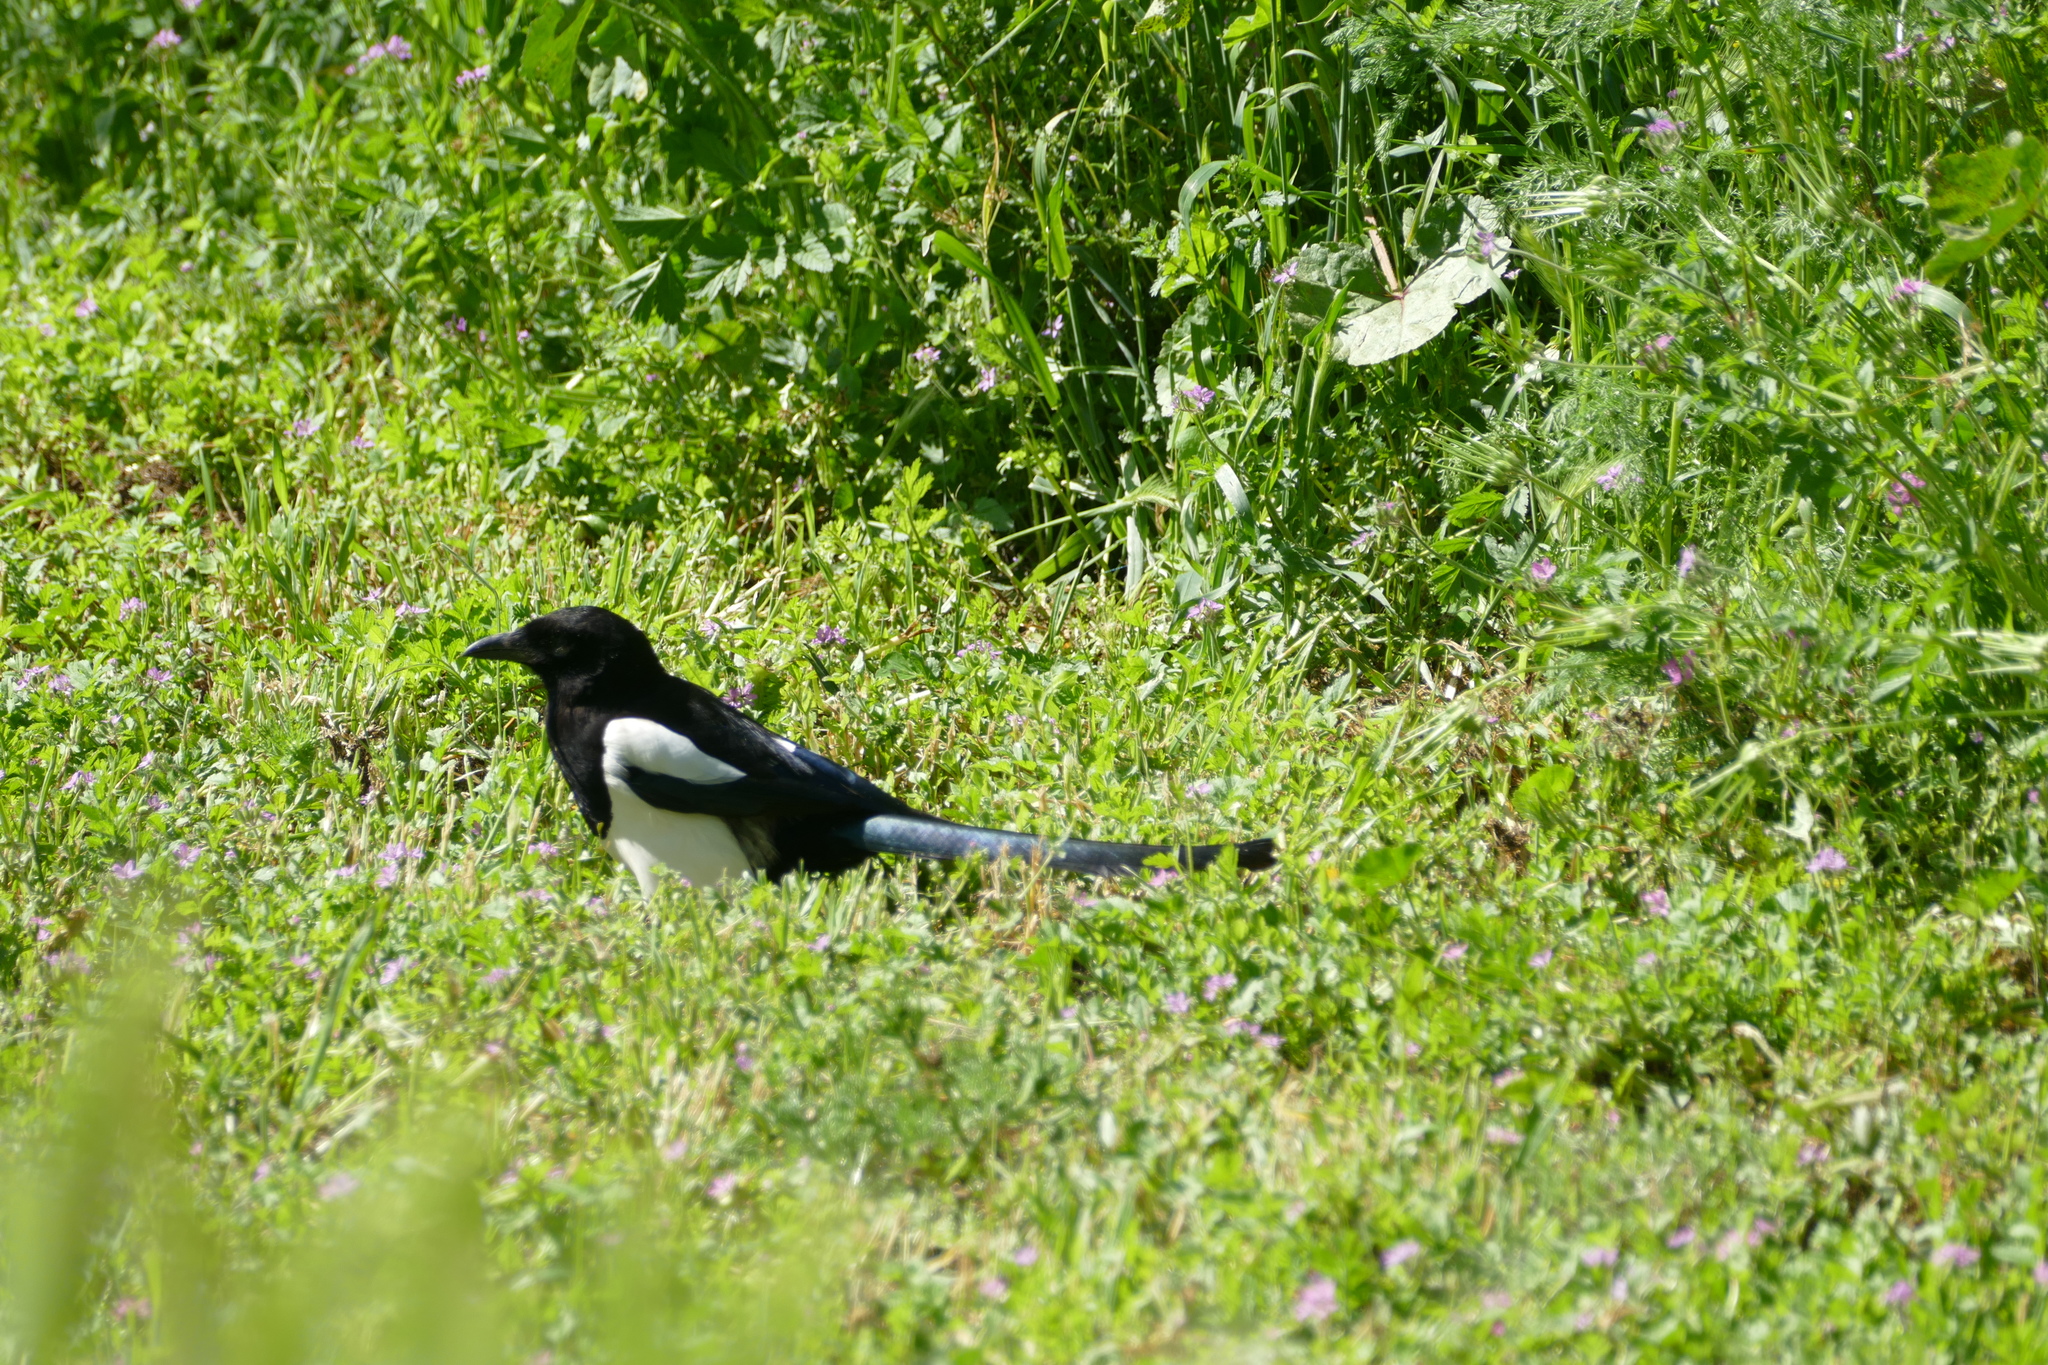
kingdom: Animalia
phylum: Chordata
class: Aves
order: Passeriformes
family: Corvidae
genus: Pica
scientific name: Pica pica
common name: Eurasian magpie
